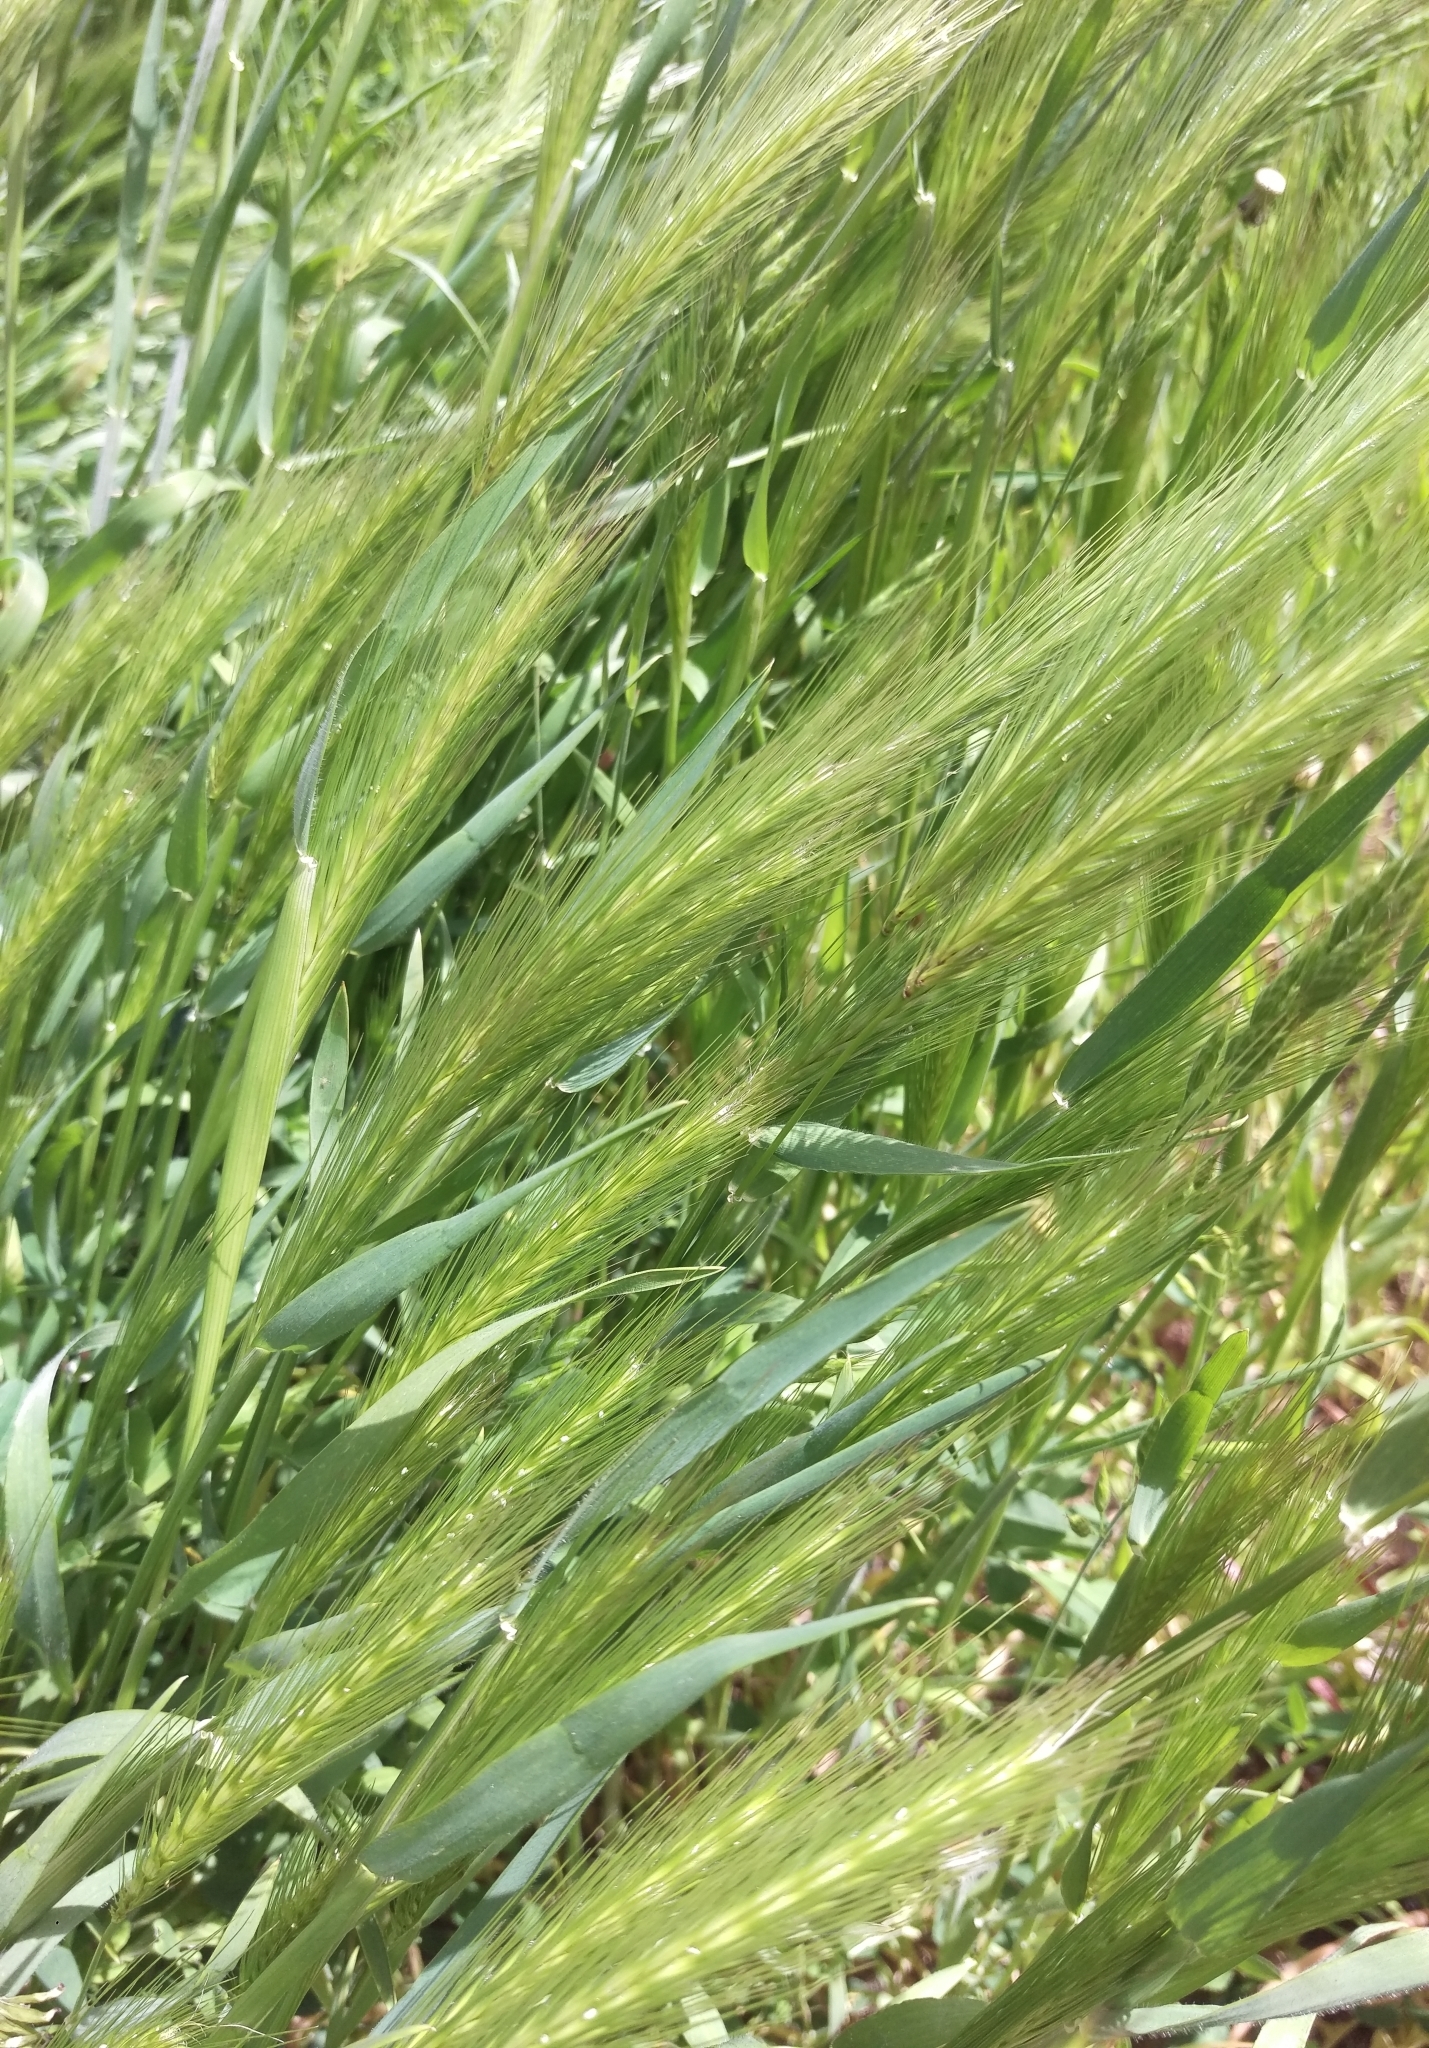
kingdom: Plantae
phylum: Tracheophyta
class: Liliopsida
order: Poales
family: Poaceae
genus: Hordeum
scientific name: Hordeum murinum
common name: Wall barley
